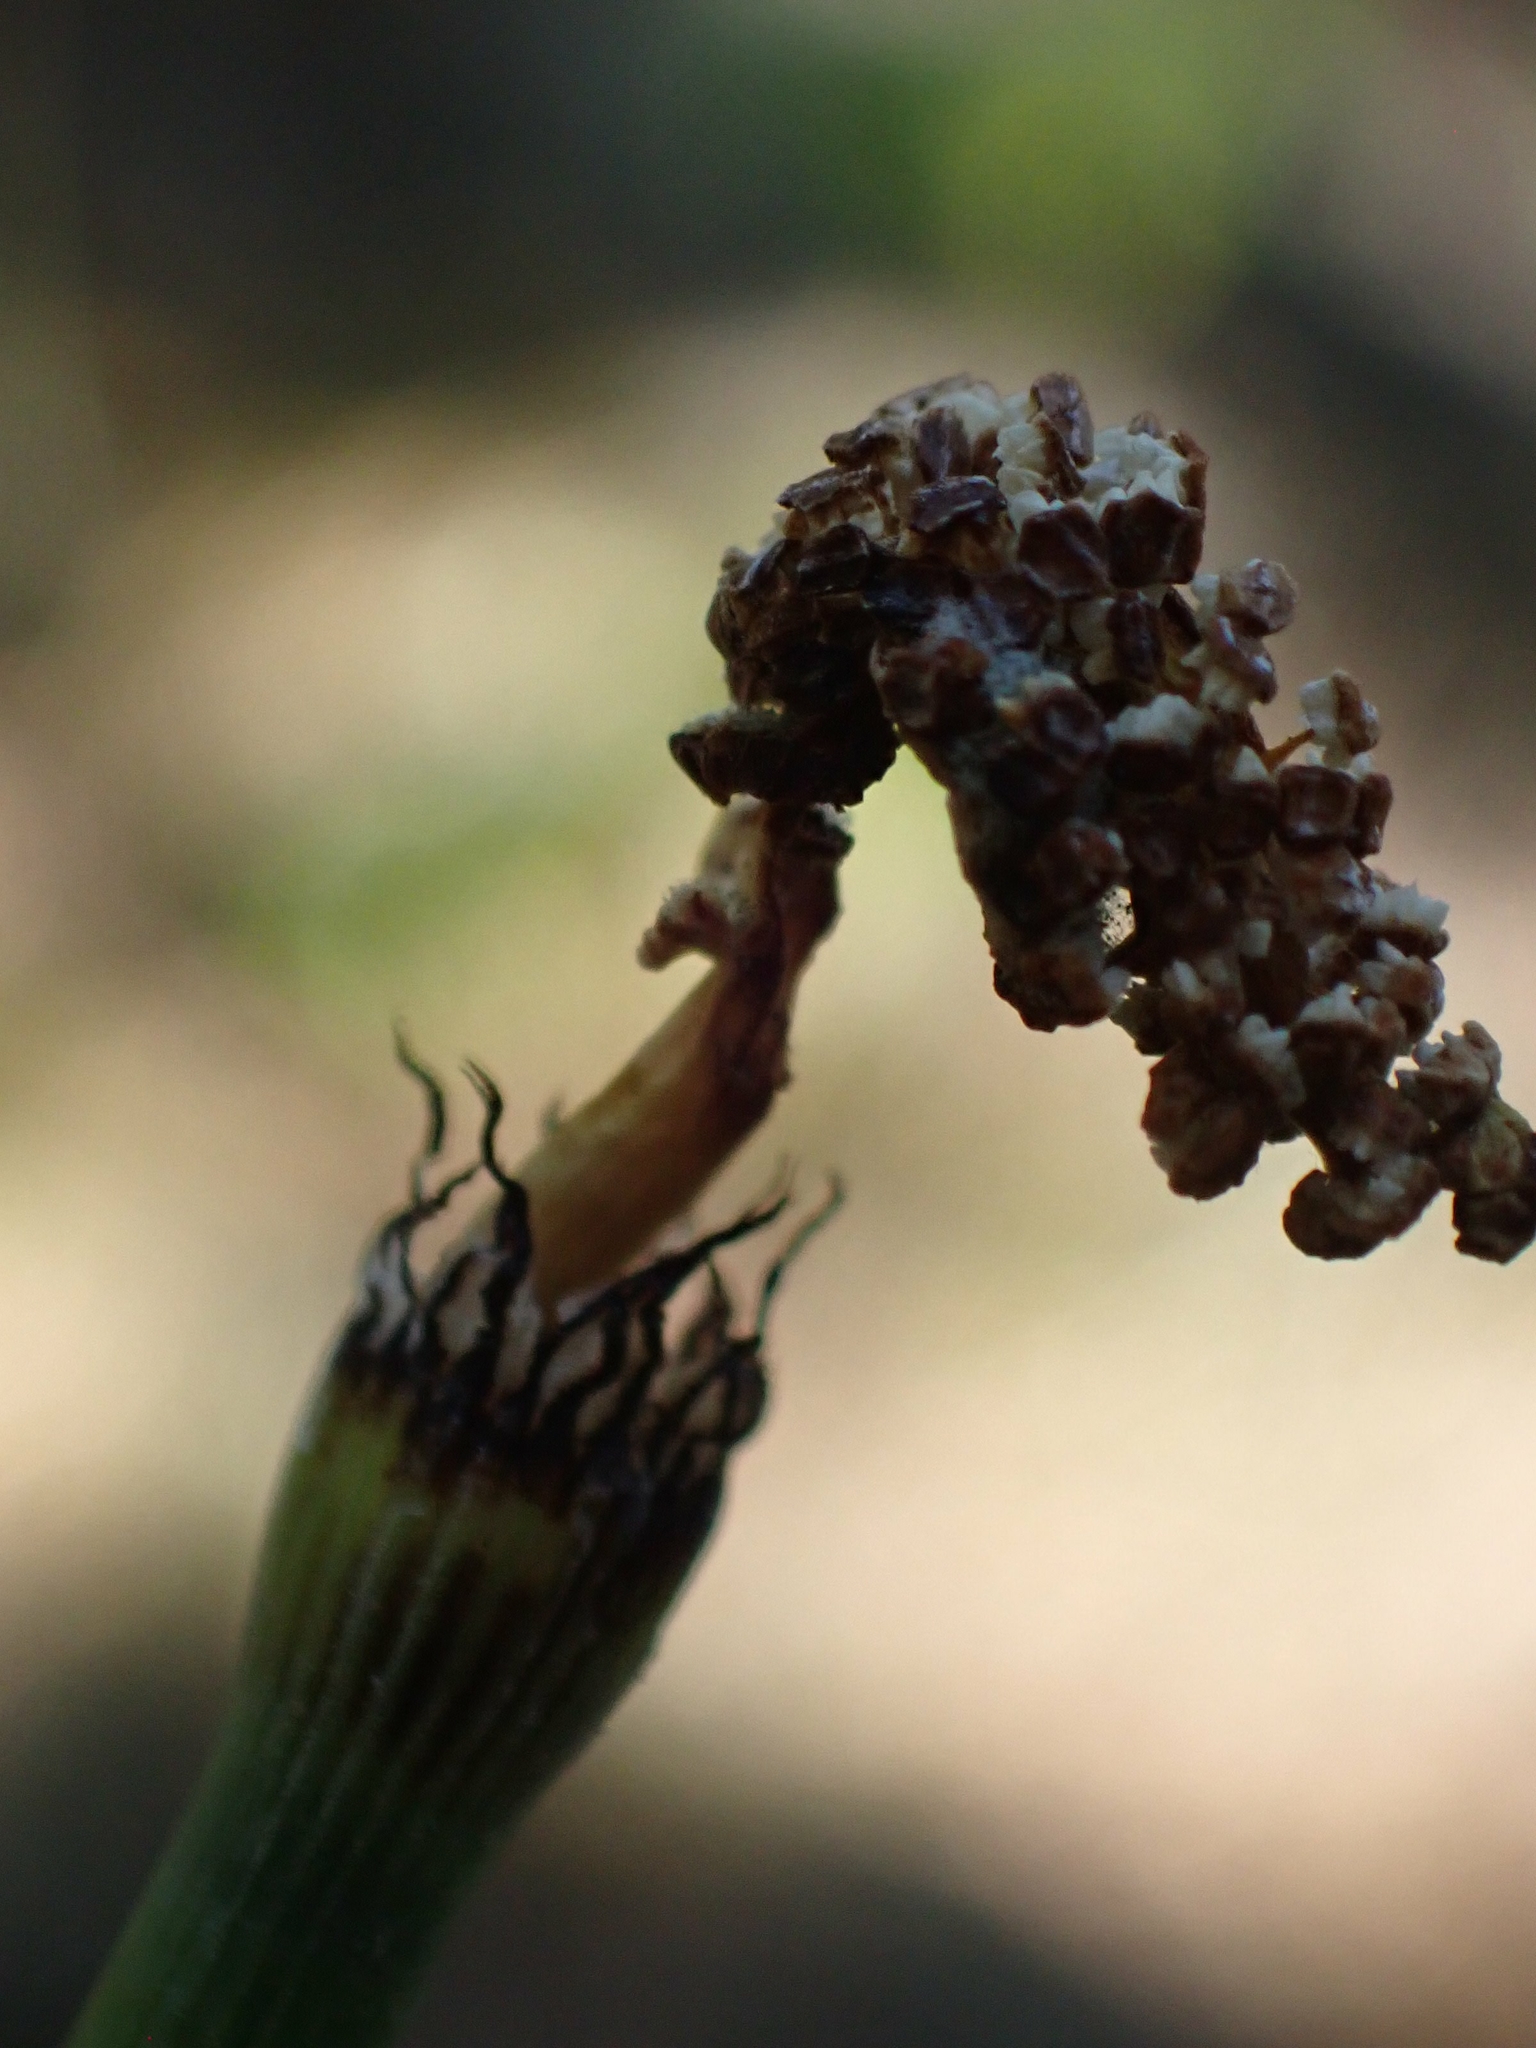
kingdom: Plantae
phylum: Tracheophyta
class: Polypodiopsida
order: Equisetales
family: Equisetaceae
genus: Equisetum
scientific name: Equisetum laevigatum
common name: Smooth scouring-rush
